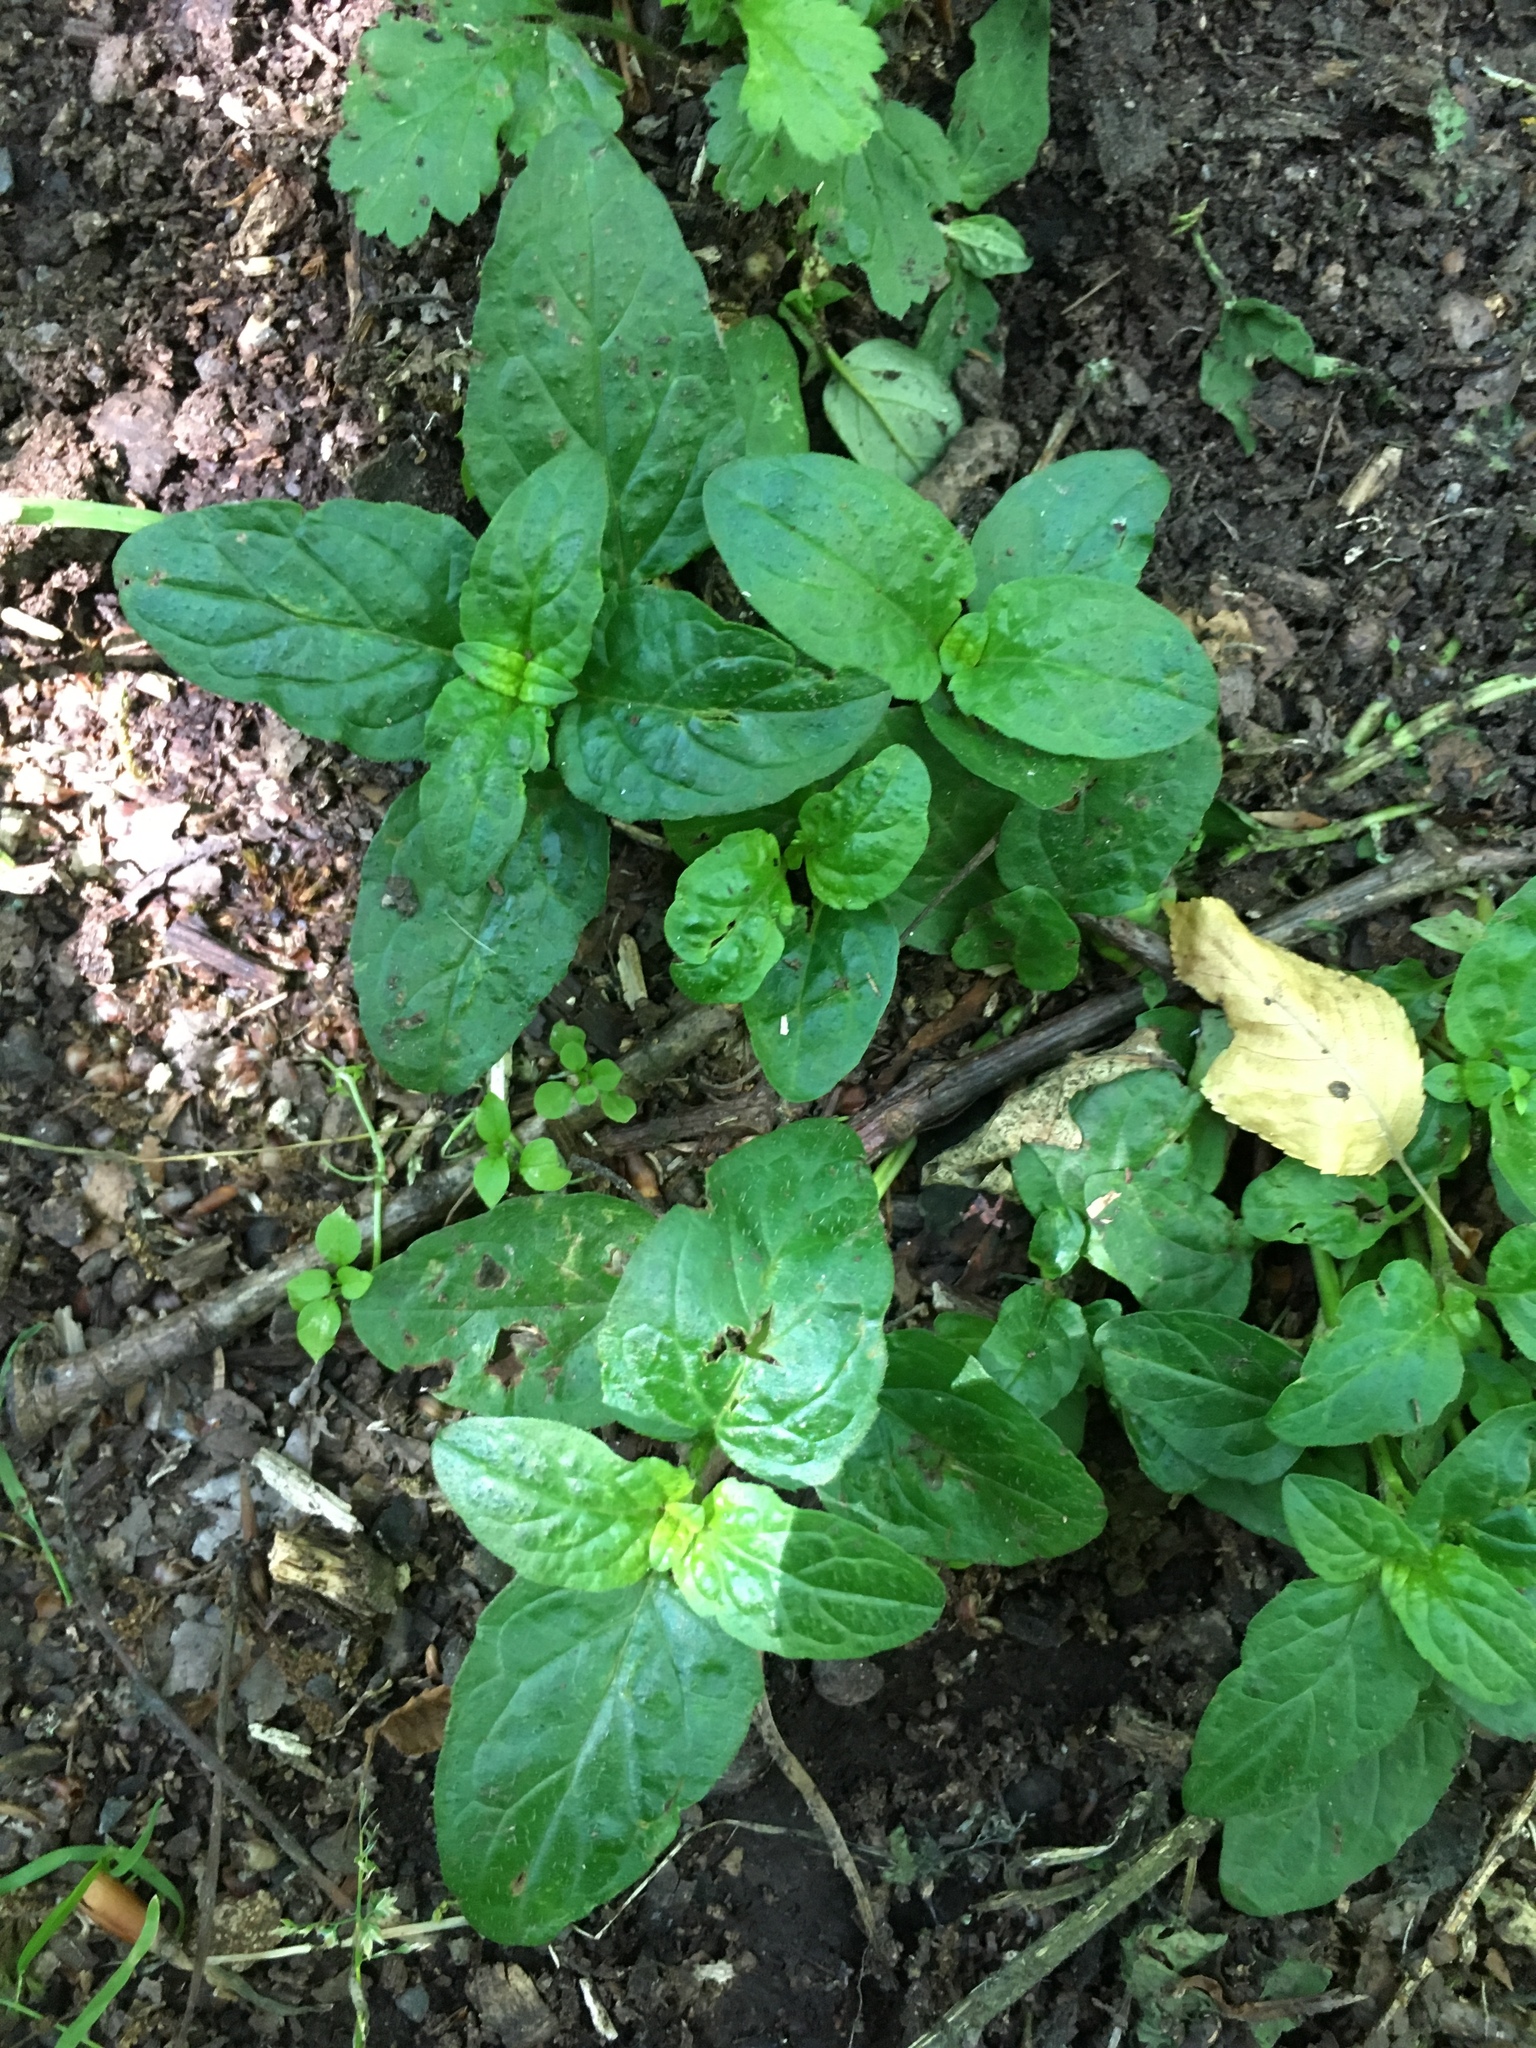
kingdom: Plantae
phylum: Tracheophyta
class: Magnoliopsida
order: Lamiales
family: Lamiaceae
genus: Prunella
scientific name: Prunella vulgaris
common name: Heal-all
